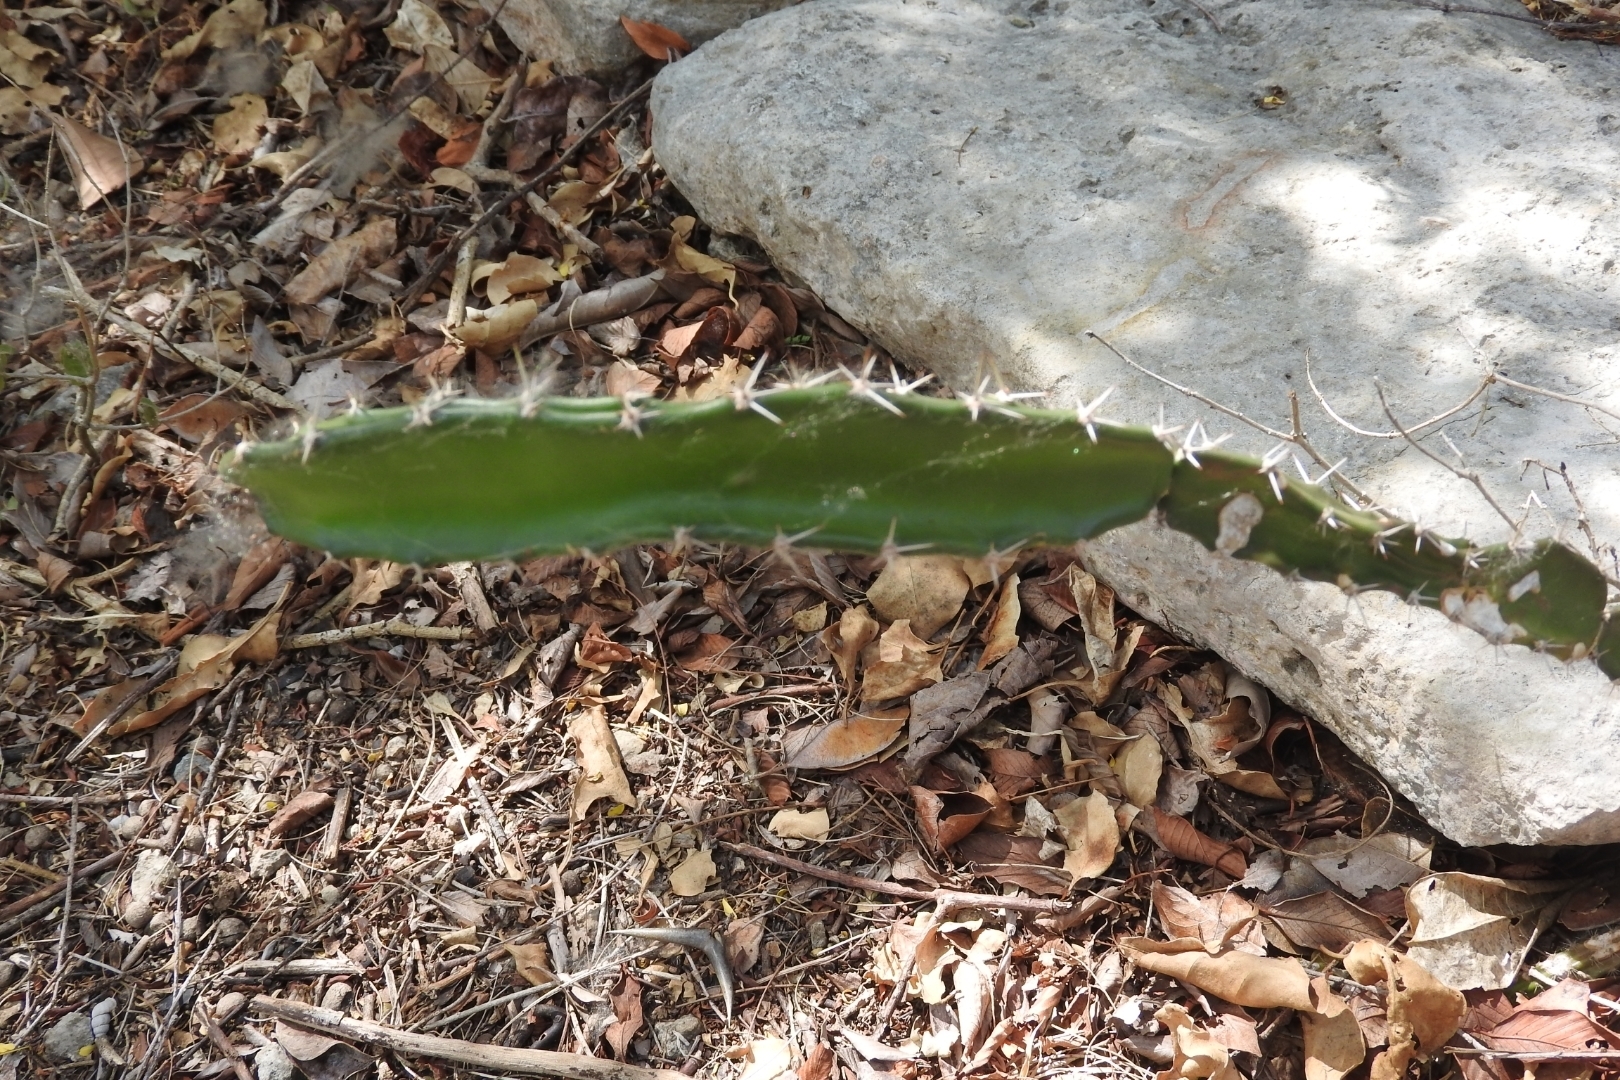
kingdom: Plantae
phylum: Tracheophyta
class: Magnoliopsida
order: Caryophyllales
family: Cactaceae
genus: Acanthocereus
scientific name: Acanthocereus tetragonus
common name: Triangle cactus
